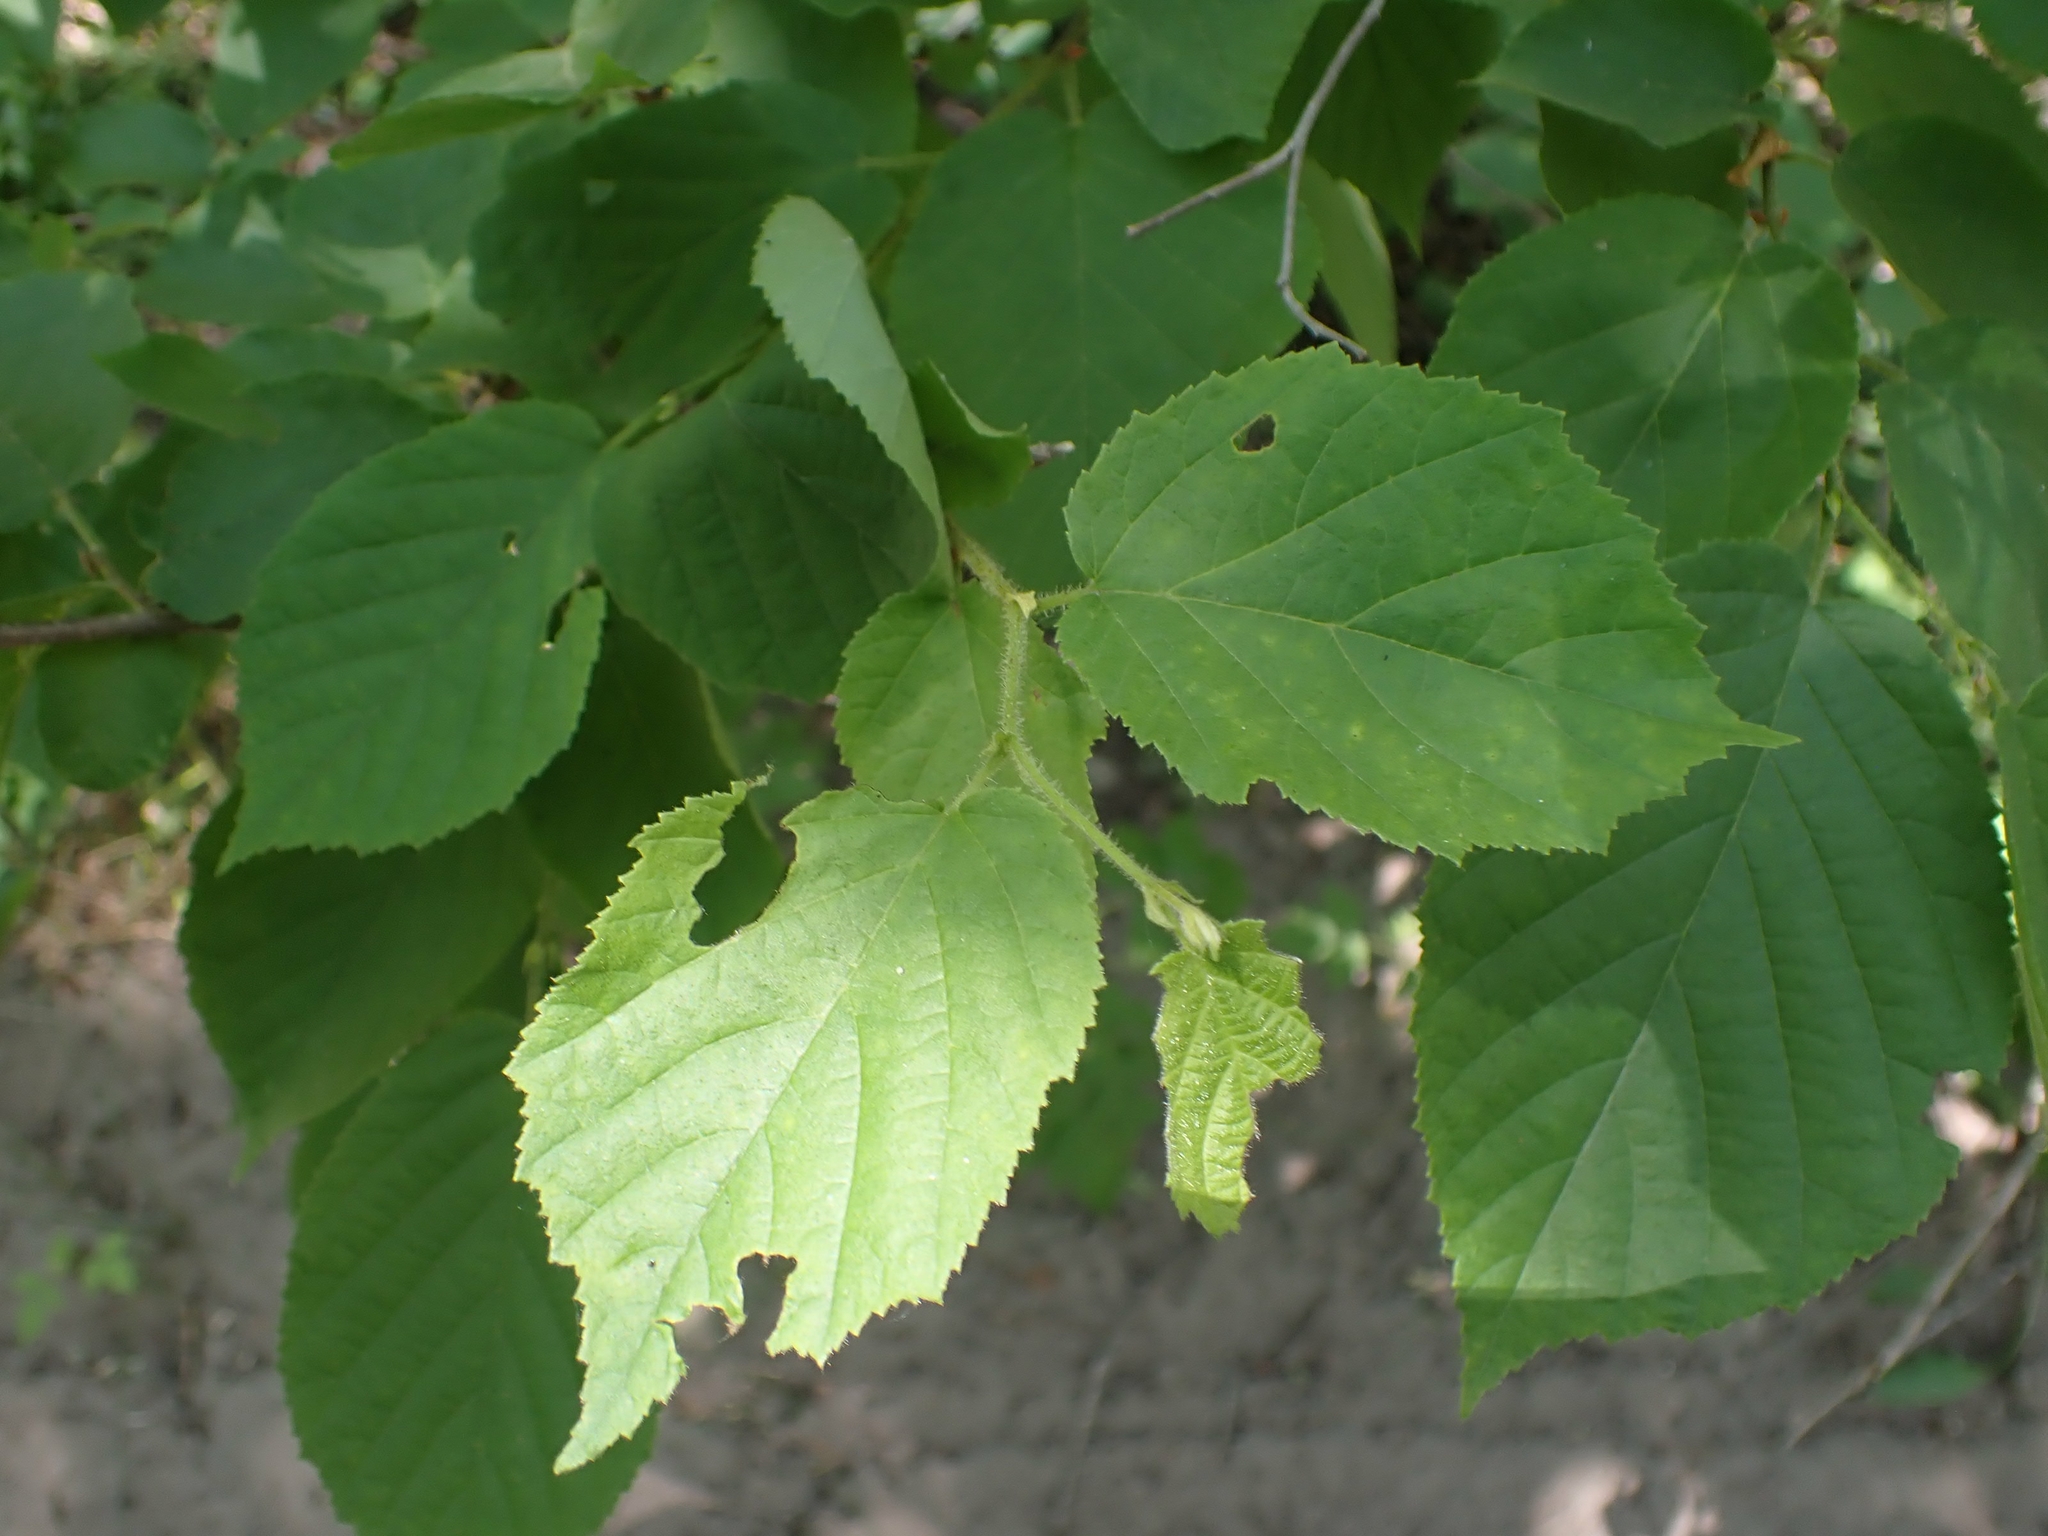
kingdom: Plantae
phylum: Tracheophyta
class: Magnoliopsida
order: Fagales
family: Betulaceae
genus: Corylus
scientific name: Corylus americana
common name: American hazel
